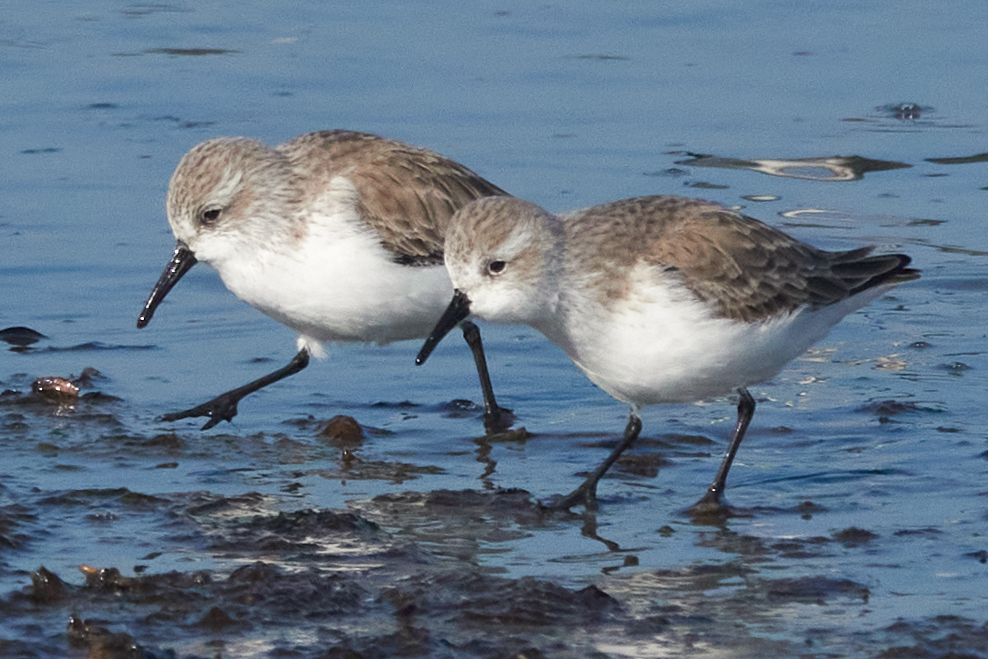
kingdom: Animalia
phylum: Chordata
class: Aves
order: Charadriiformes
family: Scolopacidae
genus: Calidris
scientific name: Calidris mauri
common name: Western sandpiper
